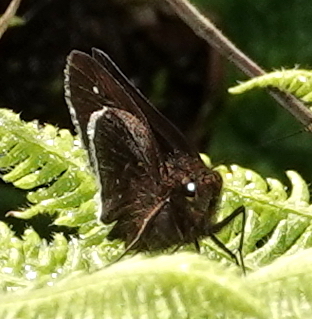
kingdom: Animalia
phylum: Arthropoda
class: Insecta
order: Lepidoptera
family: Hesperiidae
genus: Enosis
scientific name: Enosis aphilos
